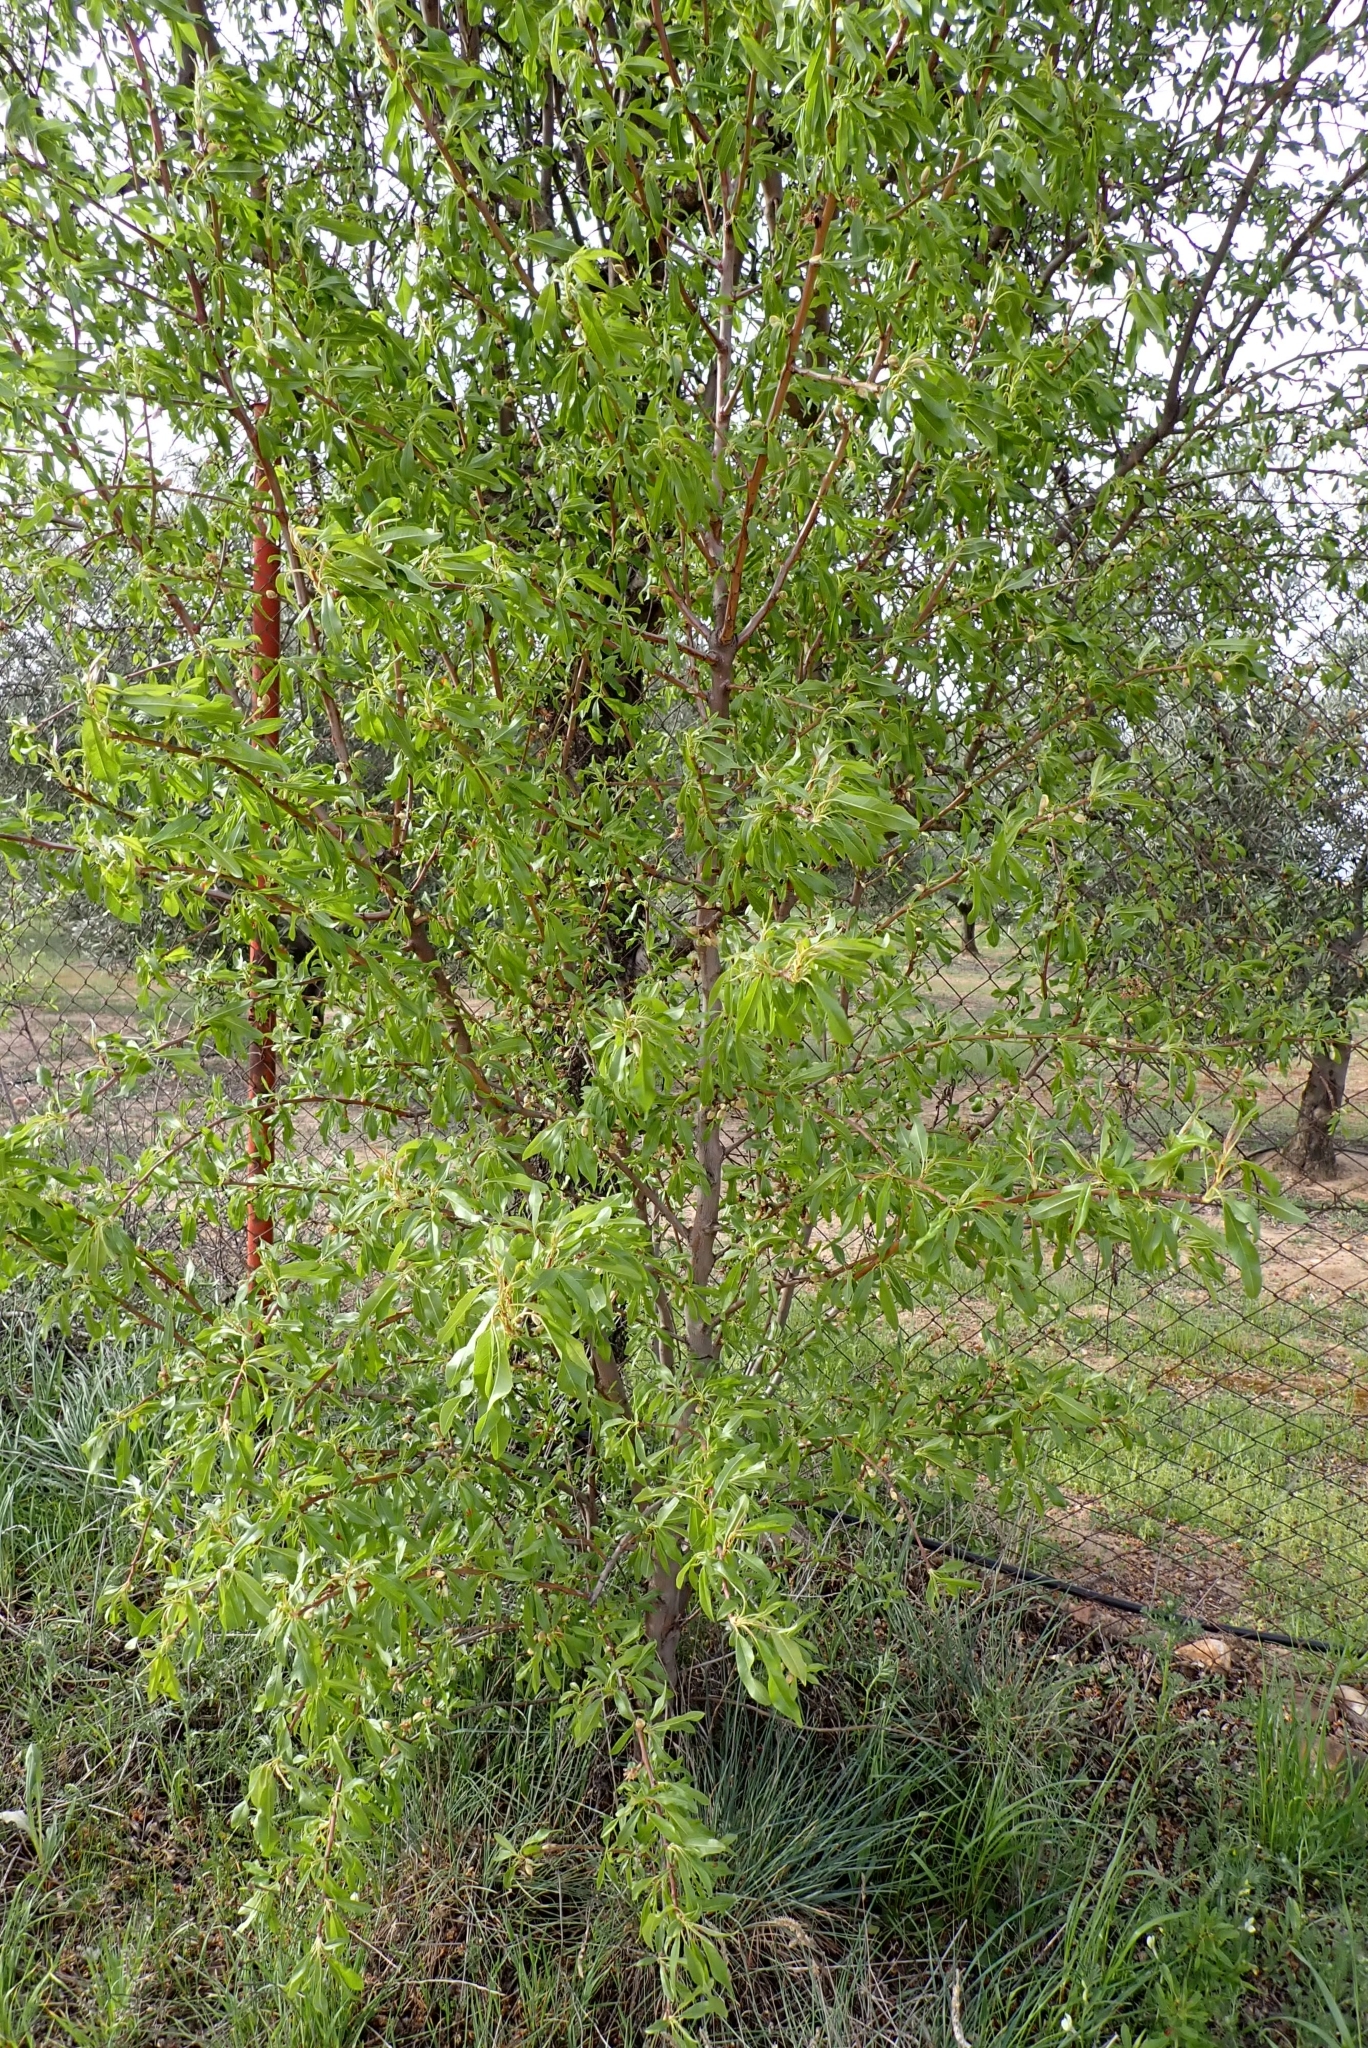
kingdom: Plantae
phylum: Tracheophyta
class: Magnoliopsida
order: Rosales
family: Rosaceae
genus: Prunus
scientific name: Prunus amygdalus
